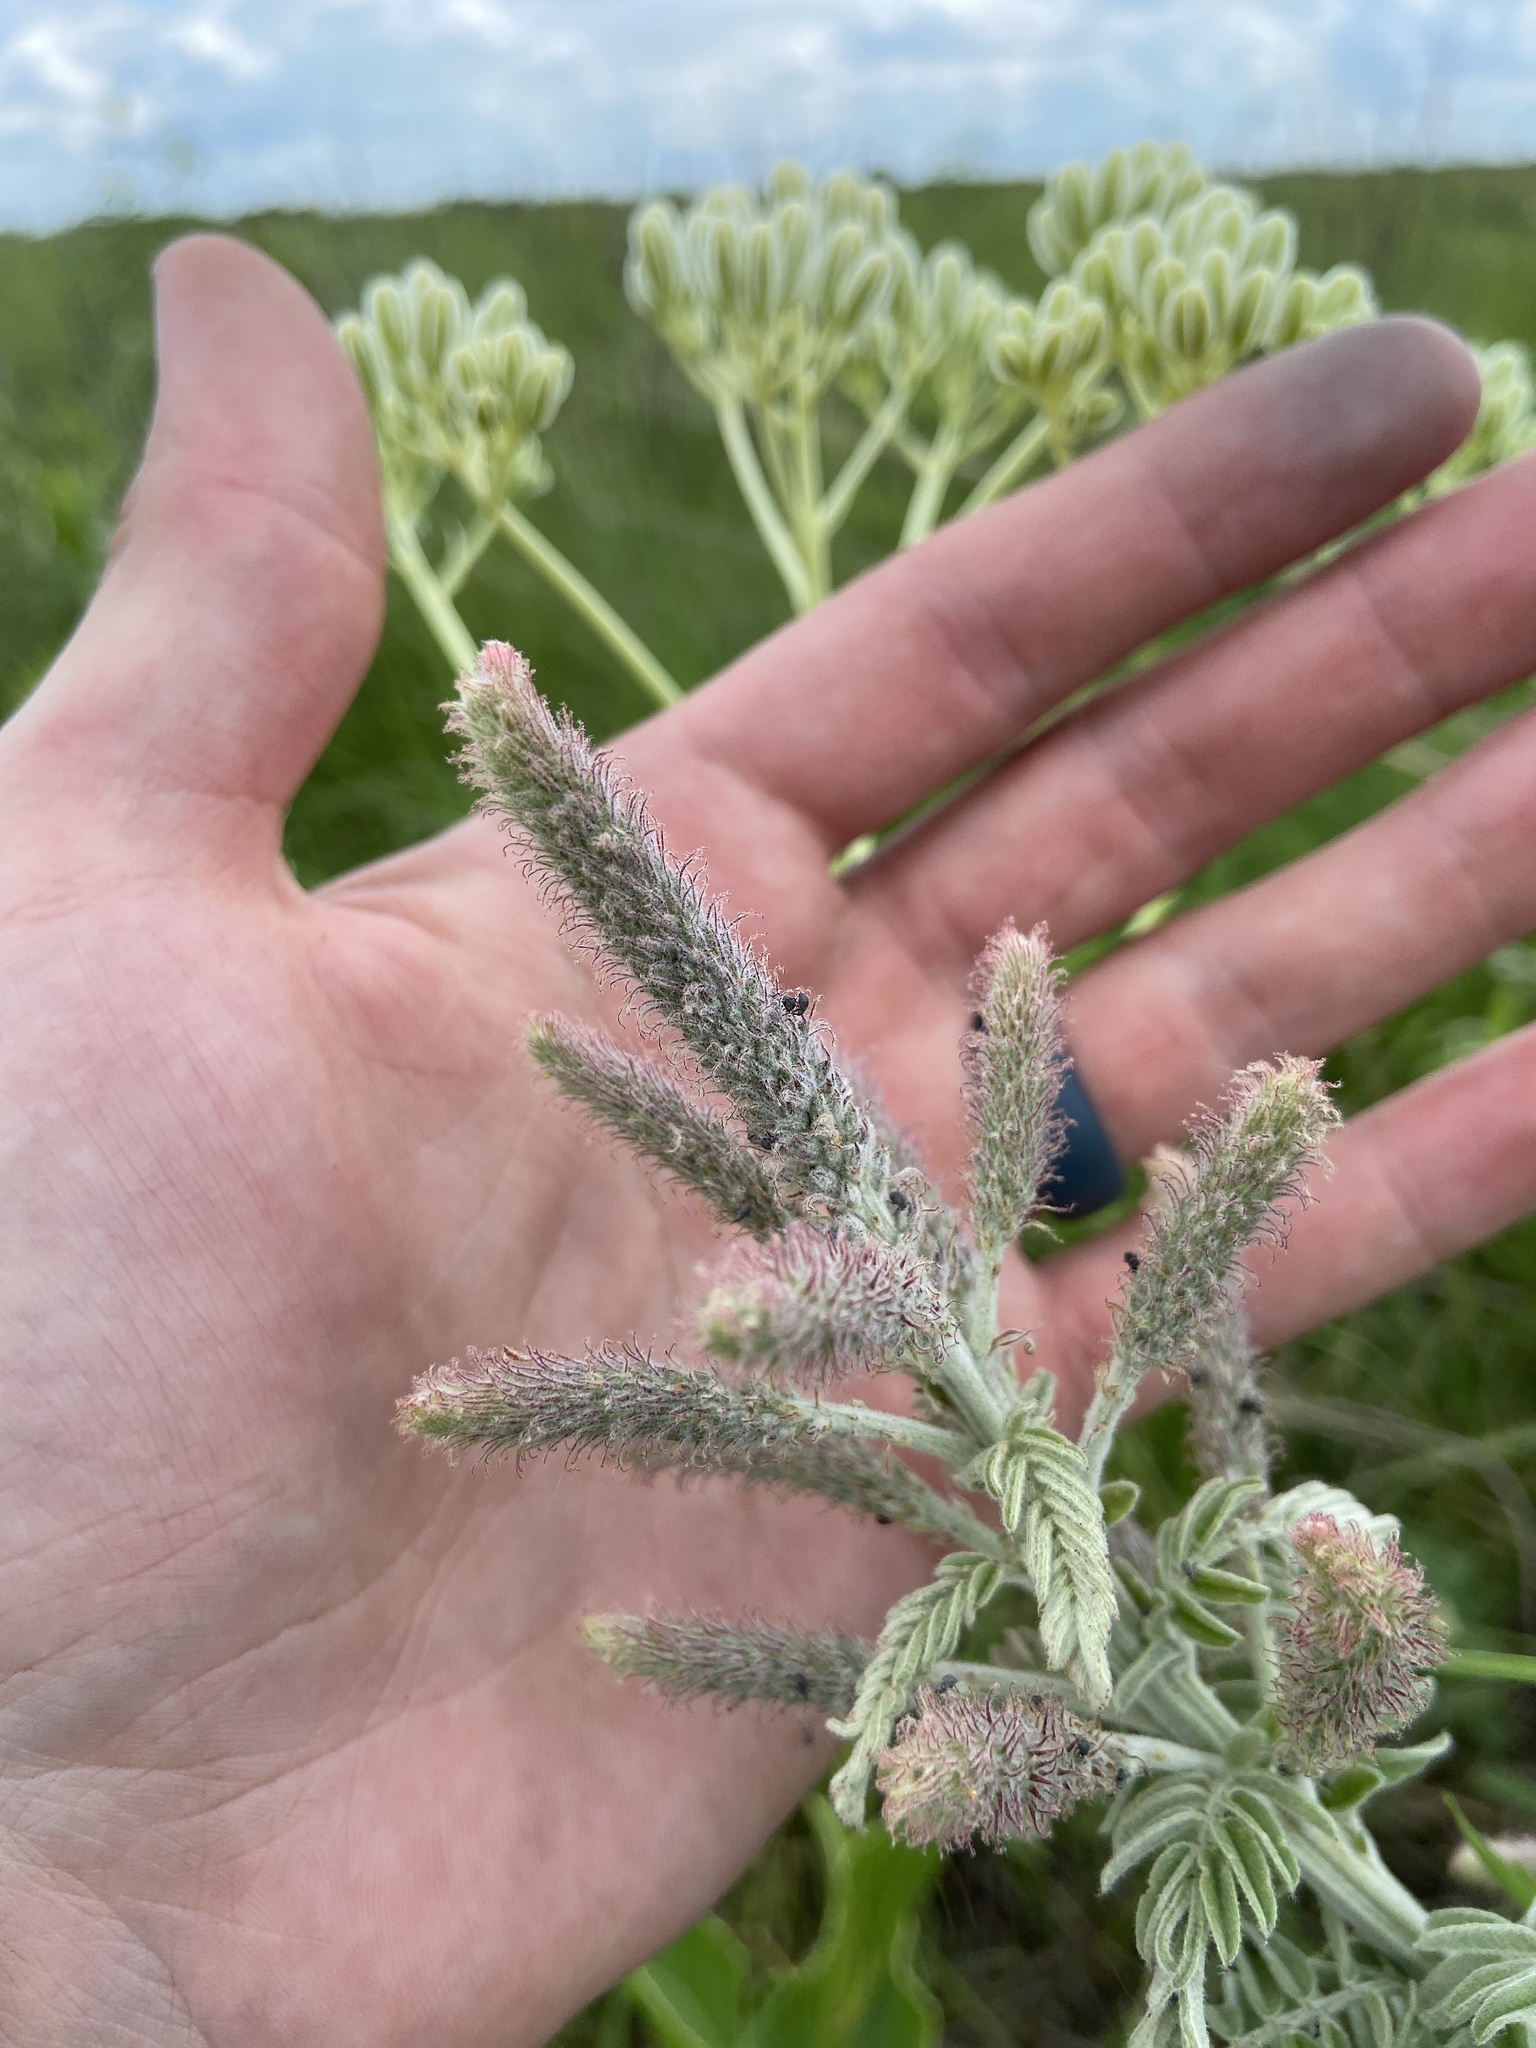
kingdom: Plantae
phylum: Tracheophyta
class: Magnoliopsida
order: Fabales
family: Fabaceae
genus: Amorpha
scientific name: Amorpha canescens
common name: Leadplant
